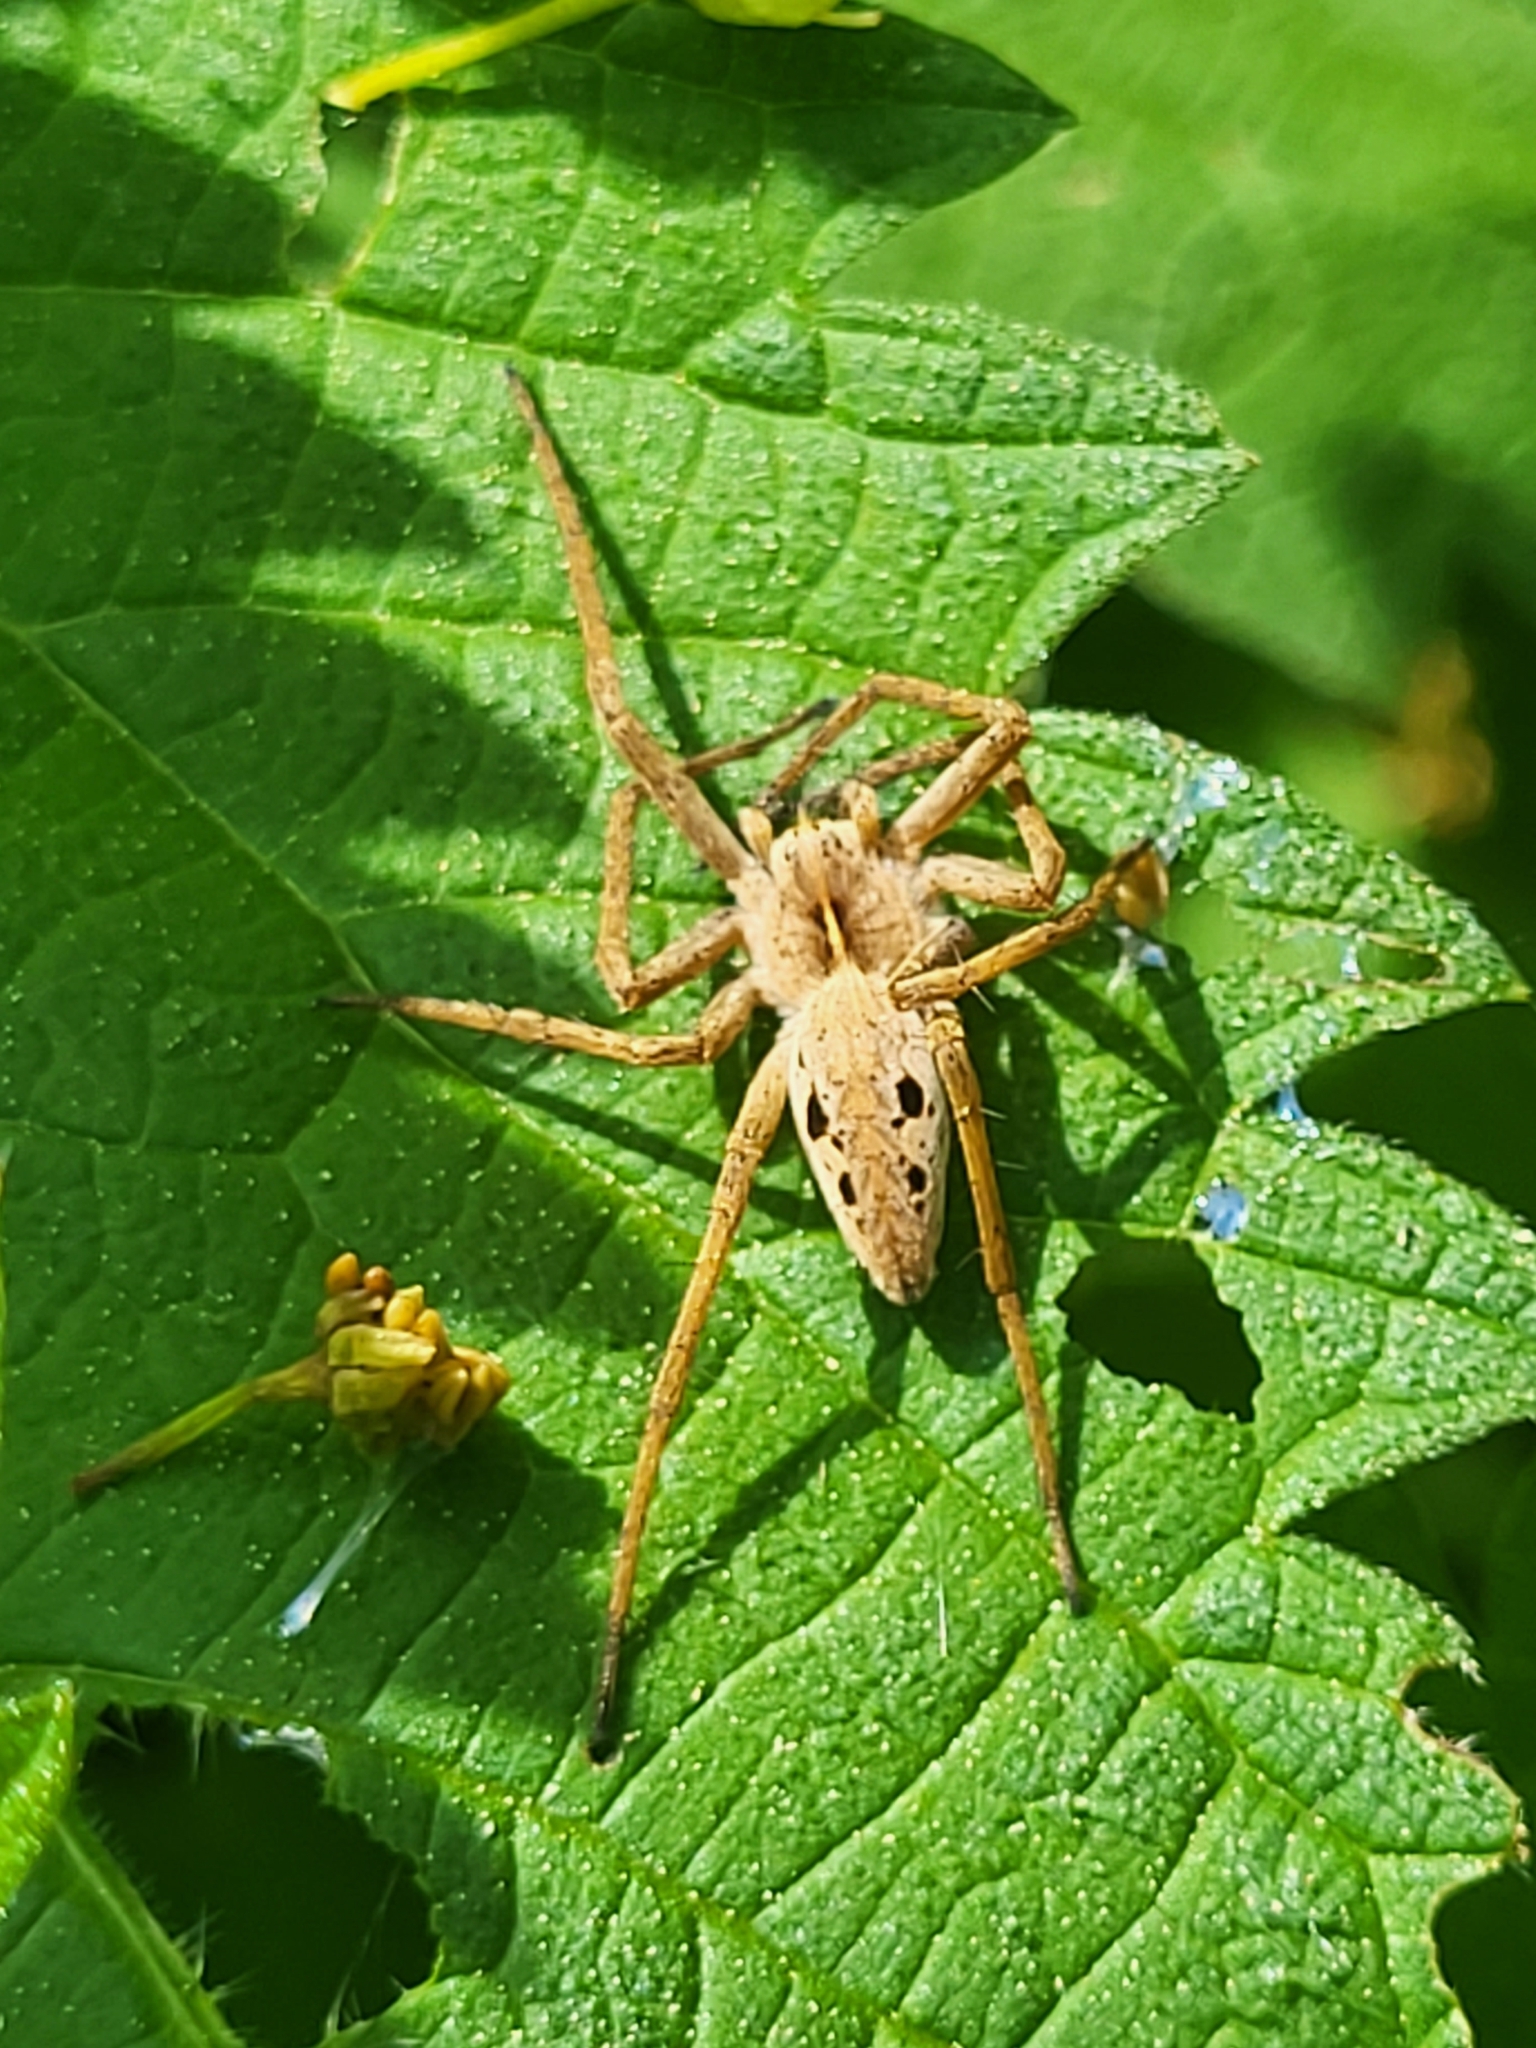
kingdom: Animalia
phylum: Arthropoda
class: Arachnida
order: Araneae
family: Pisauridae
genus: Pisaura
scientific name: Pisaura mirabilis
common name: Tent spider
